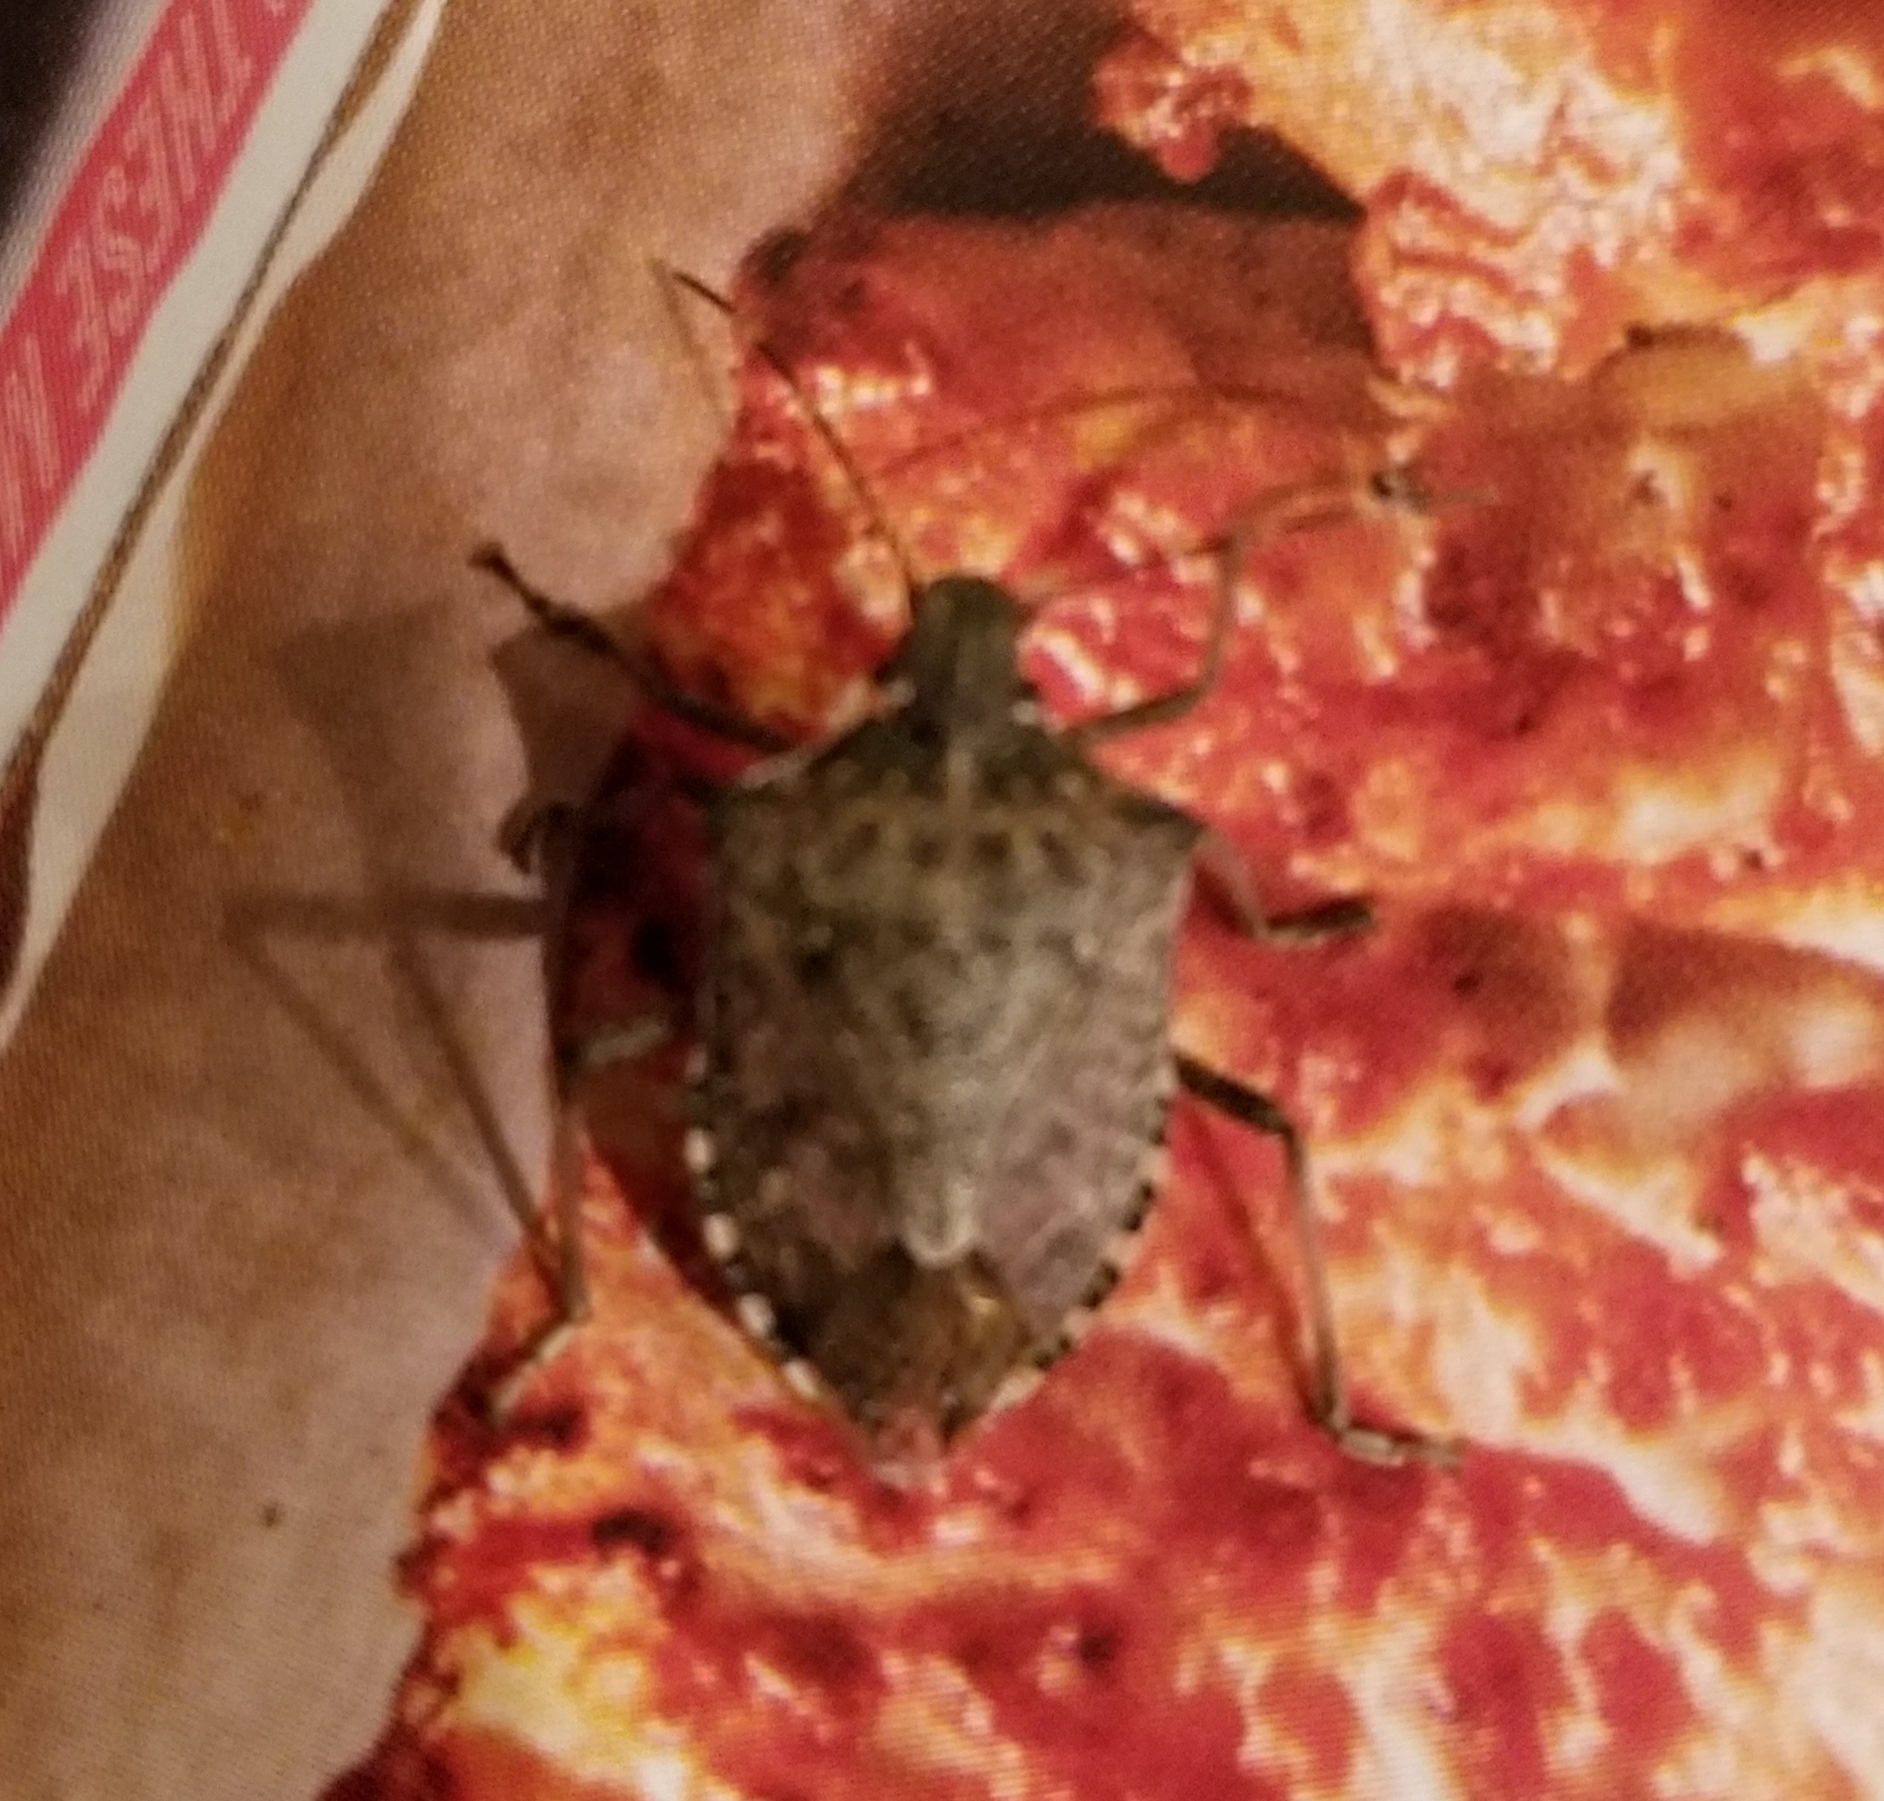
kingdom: Animalia
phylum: Arthropoda
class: Insecta
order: Hemiptera
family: Pentatomidae
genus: Halyomorpha
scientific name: Halyomorpha halys
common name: Brown marmorated stink bug
